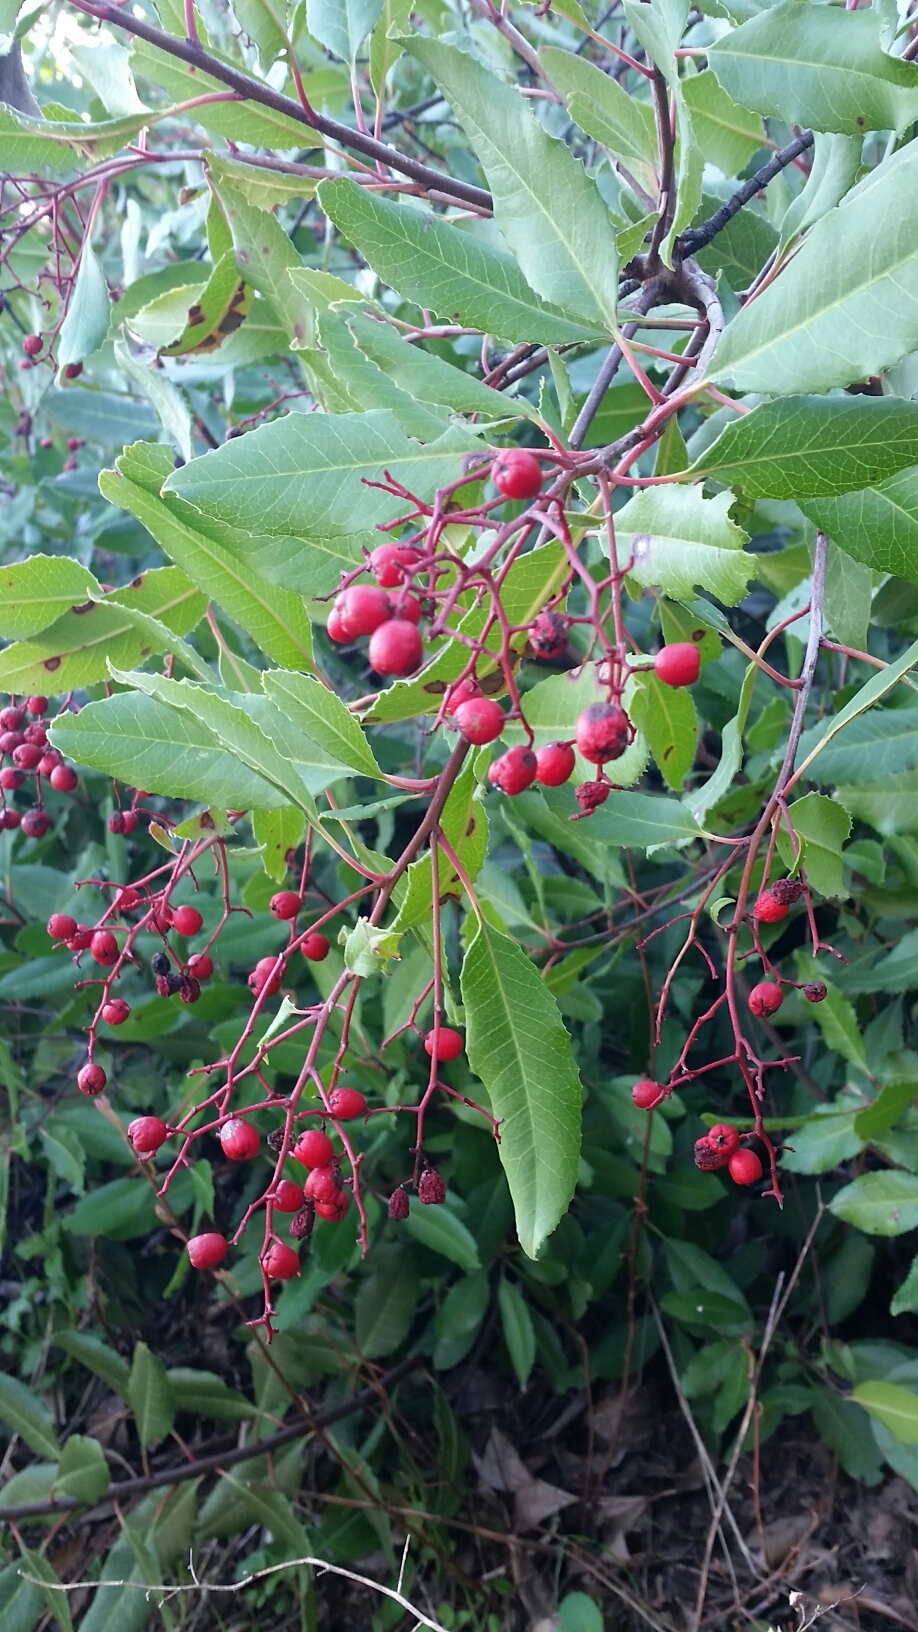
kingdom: Plantae
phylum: Tracheophyta
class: Magnoliopsida
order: Rosales
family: Rosaceae
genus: Heteromeles
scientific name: Heteromeles arbutifolia
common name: California-holly
